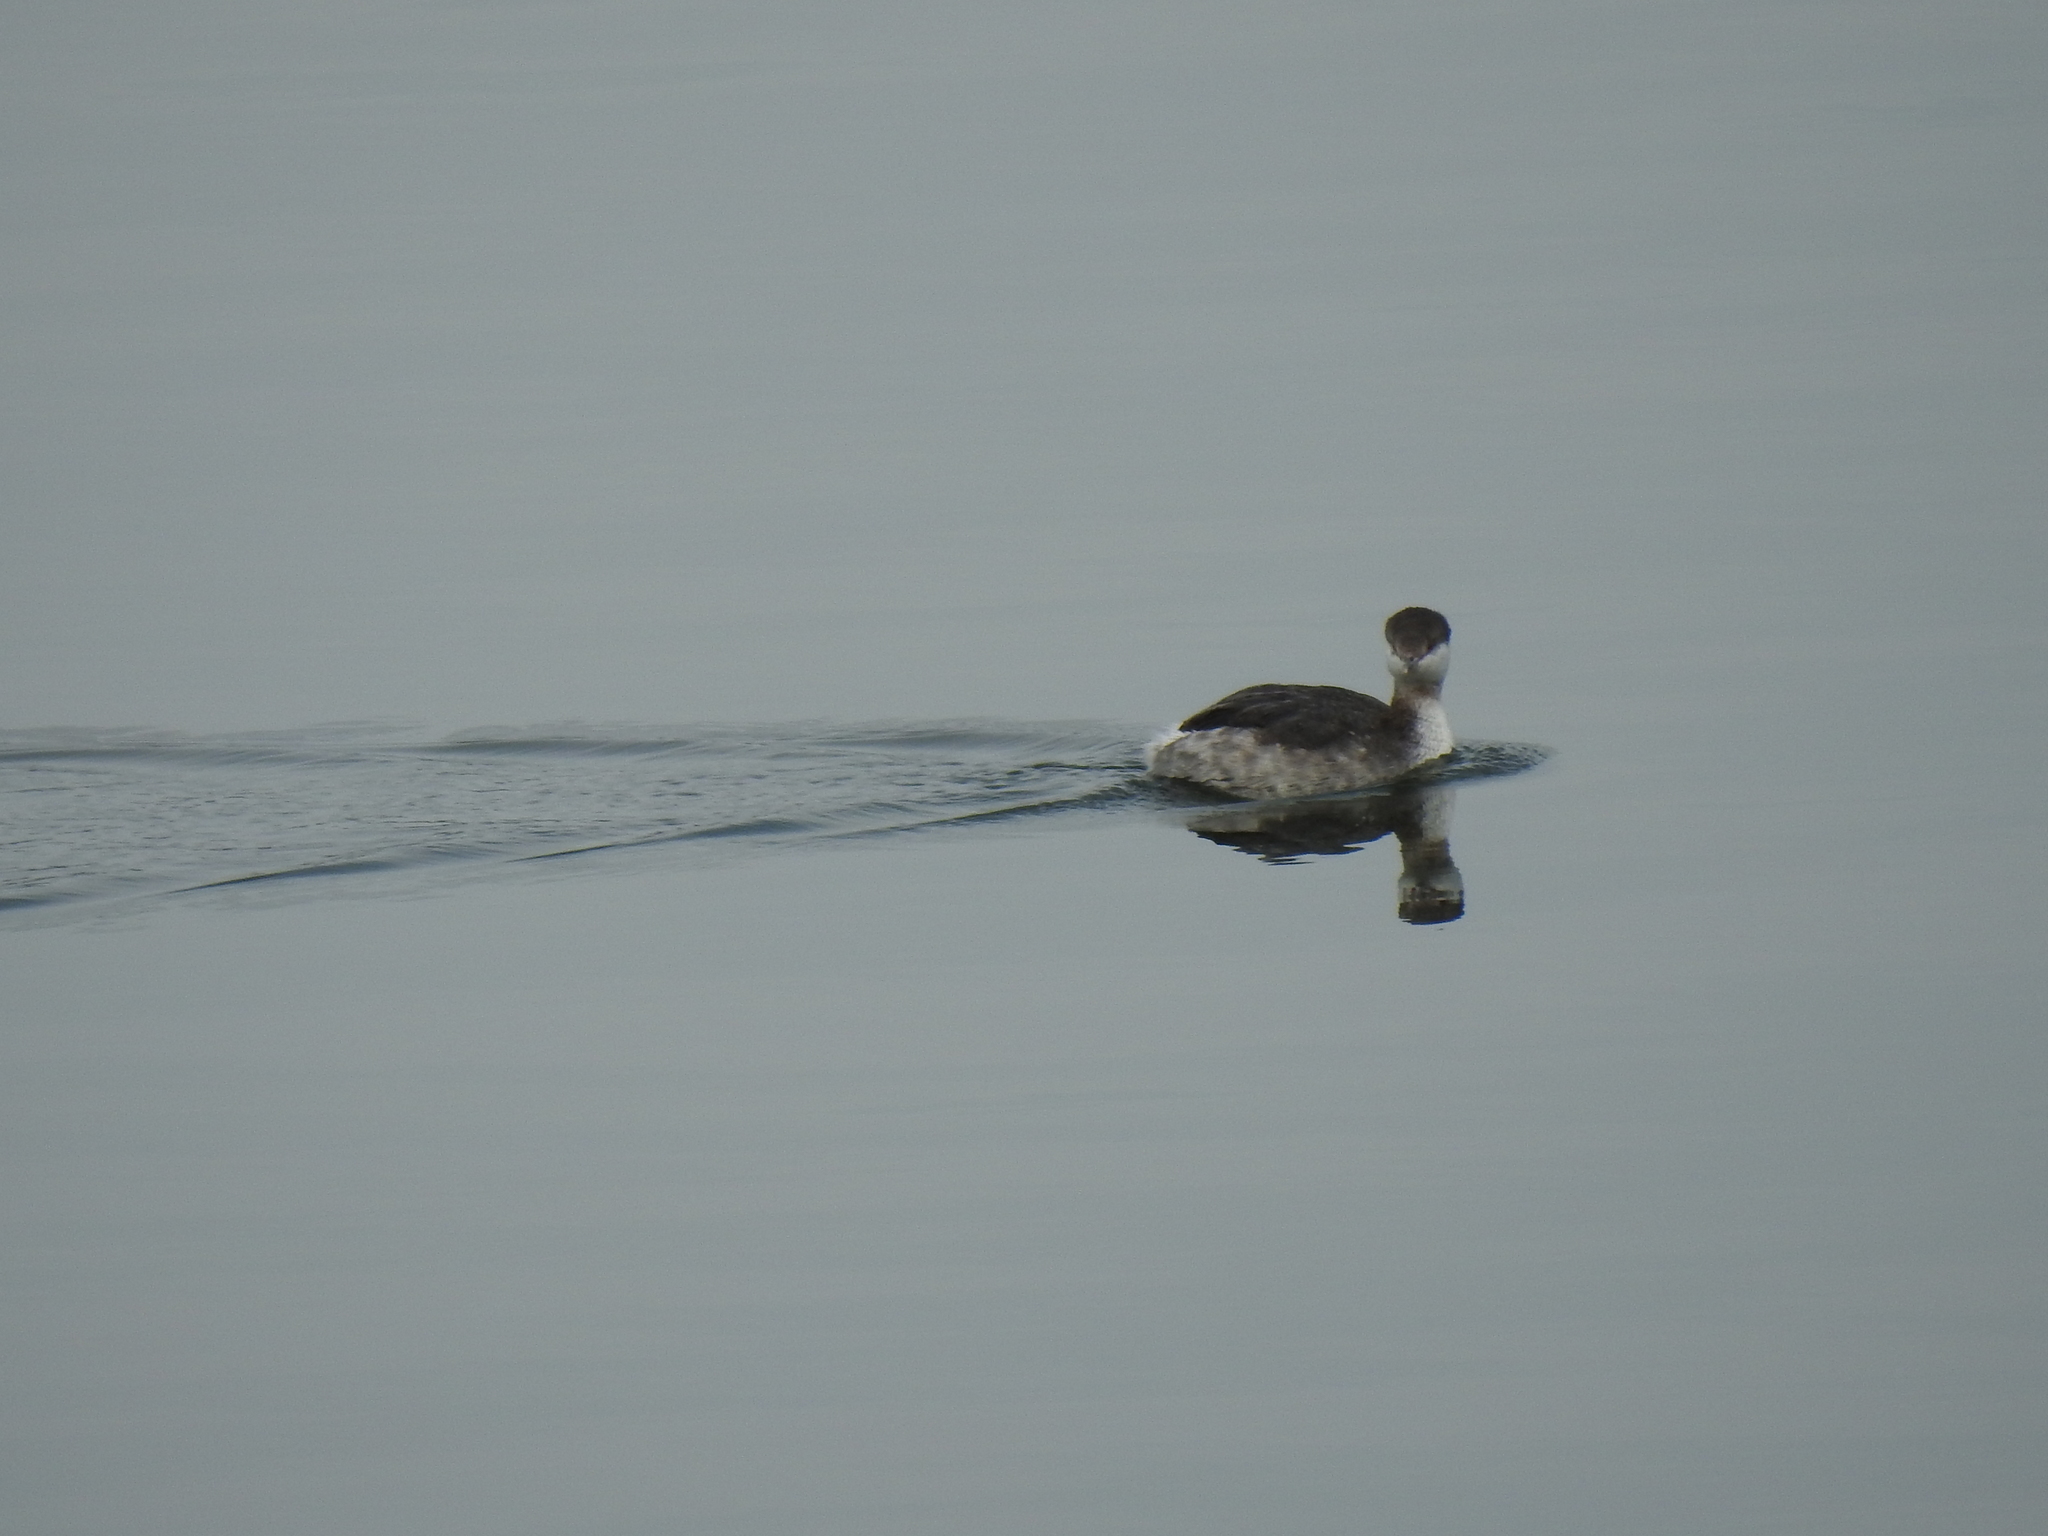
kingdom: Animalia
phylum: Chordata
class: Aves
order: Podicipediformes
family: Podicipedidae
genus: Podiceps
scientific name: Podiceps auritus
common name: Horned grebe
